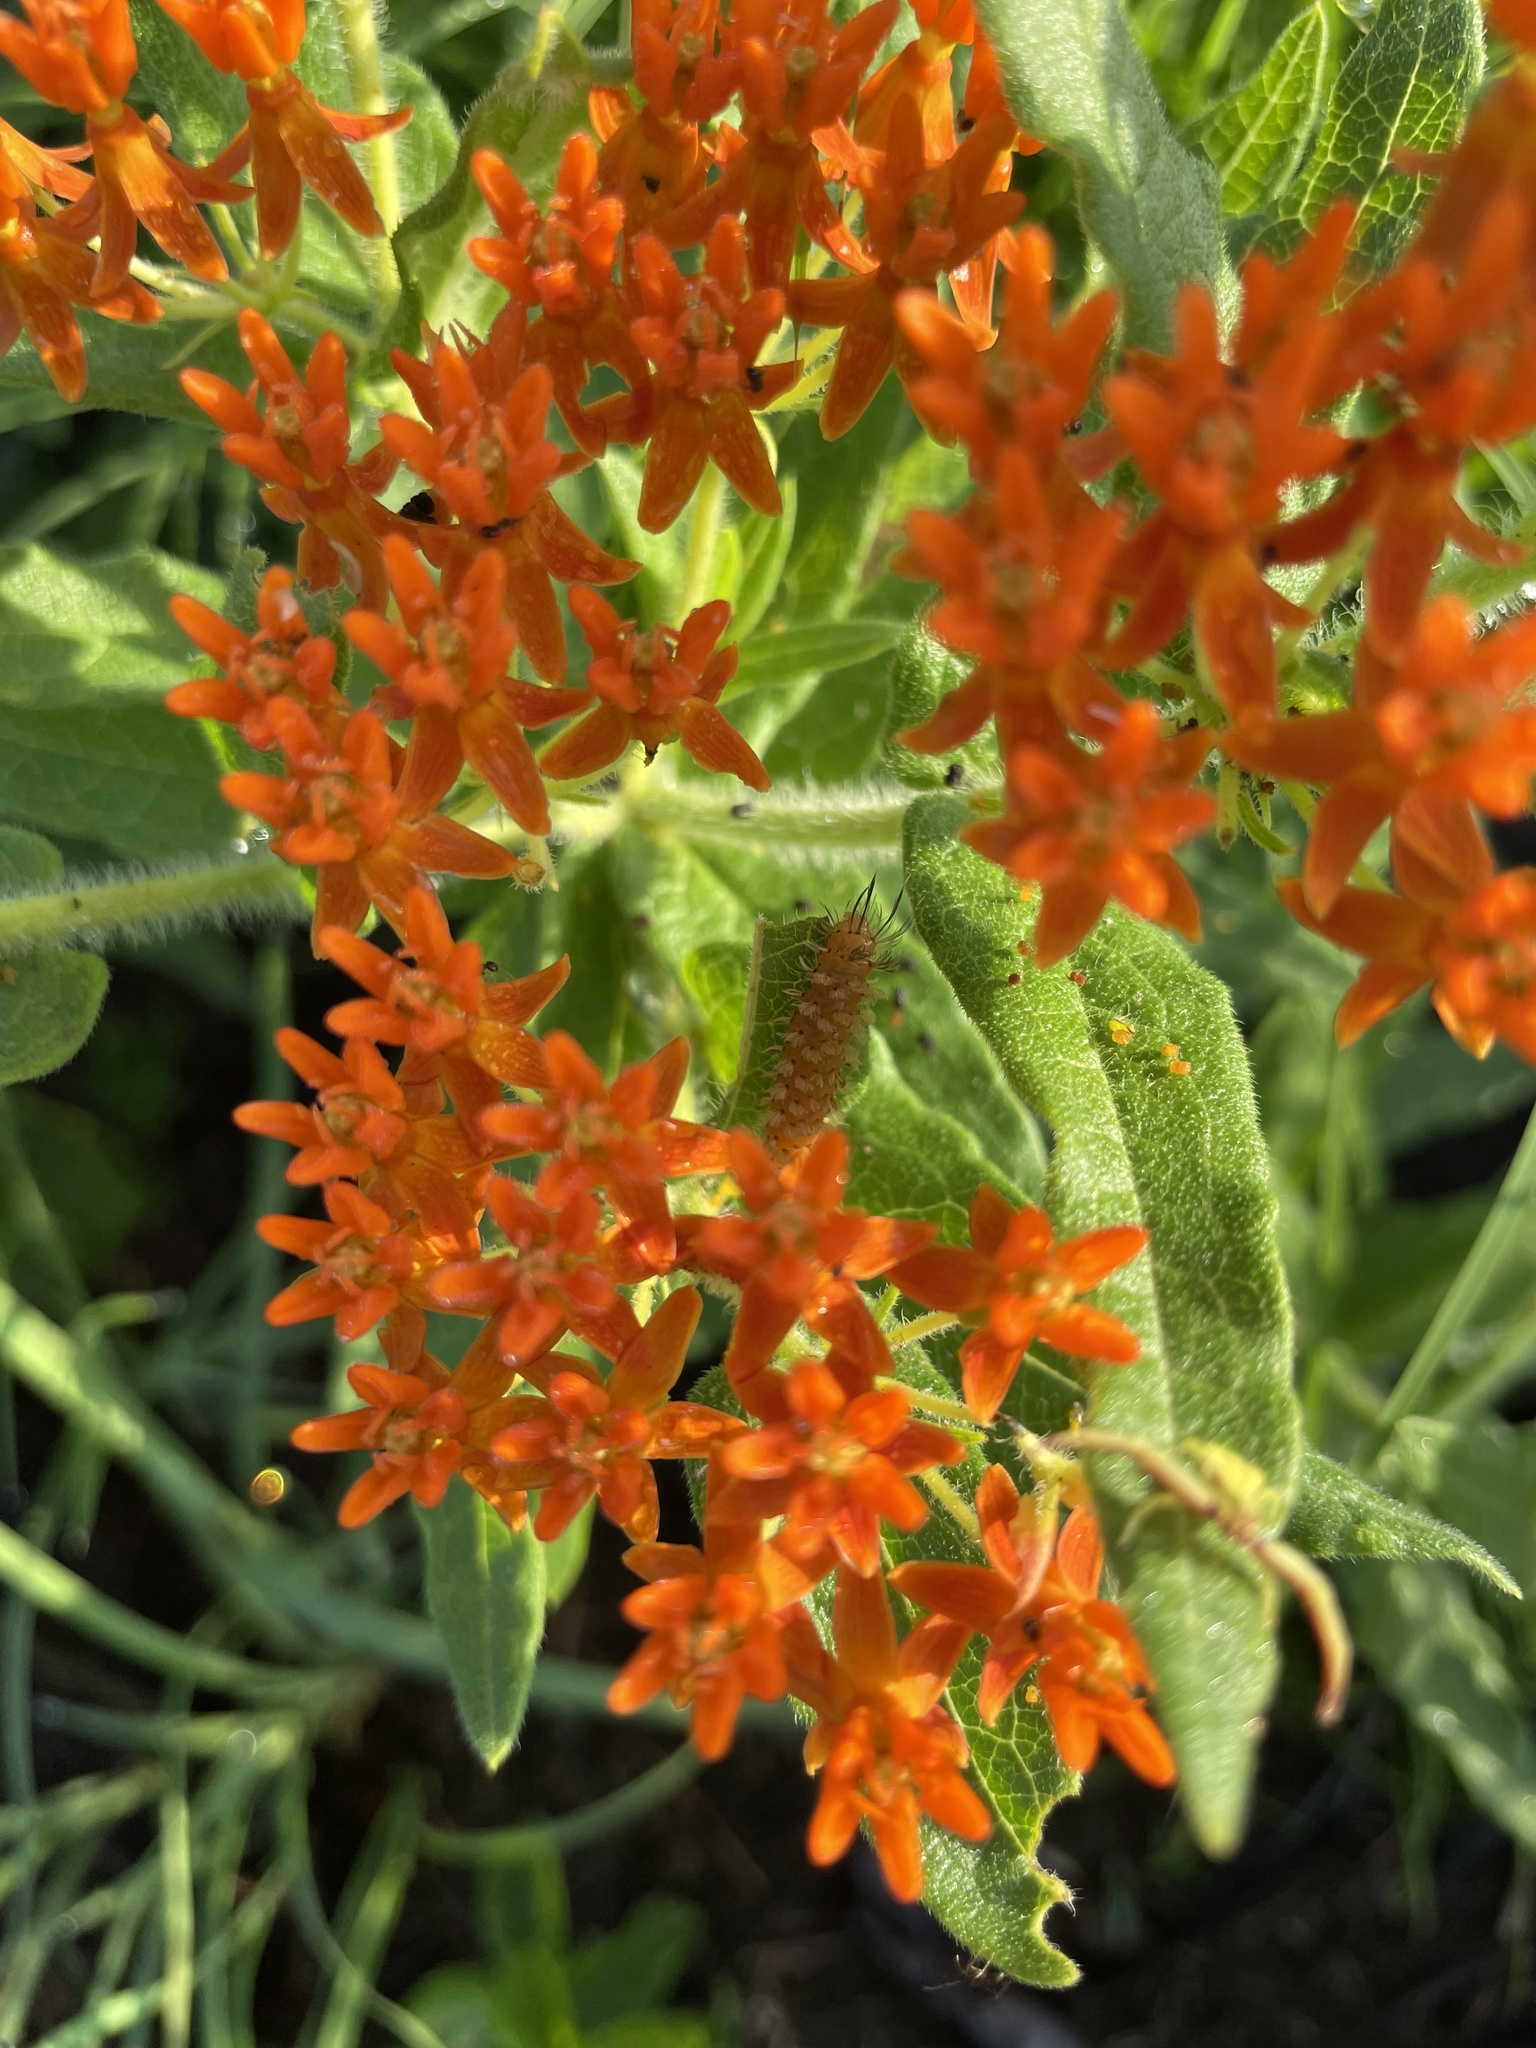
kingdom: Animalia
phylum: Arthropoda
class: Insecta
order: Lepidoptera
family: Erebidae
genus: Cycnia
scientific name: Cycnia collaris
